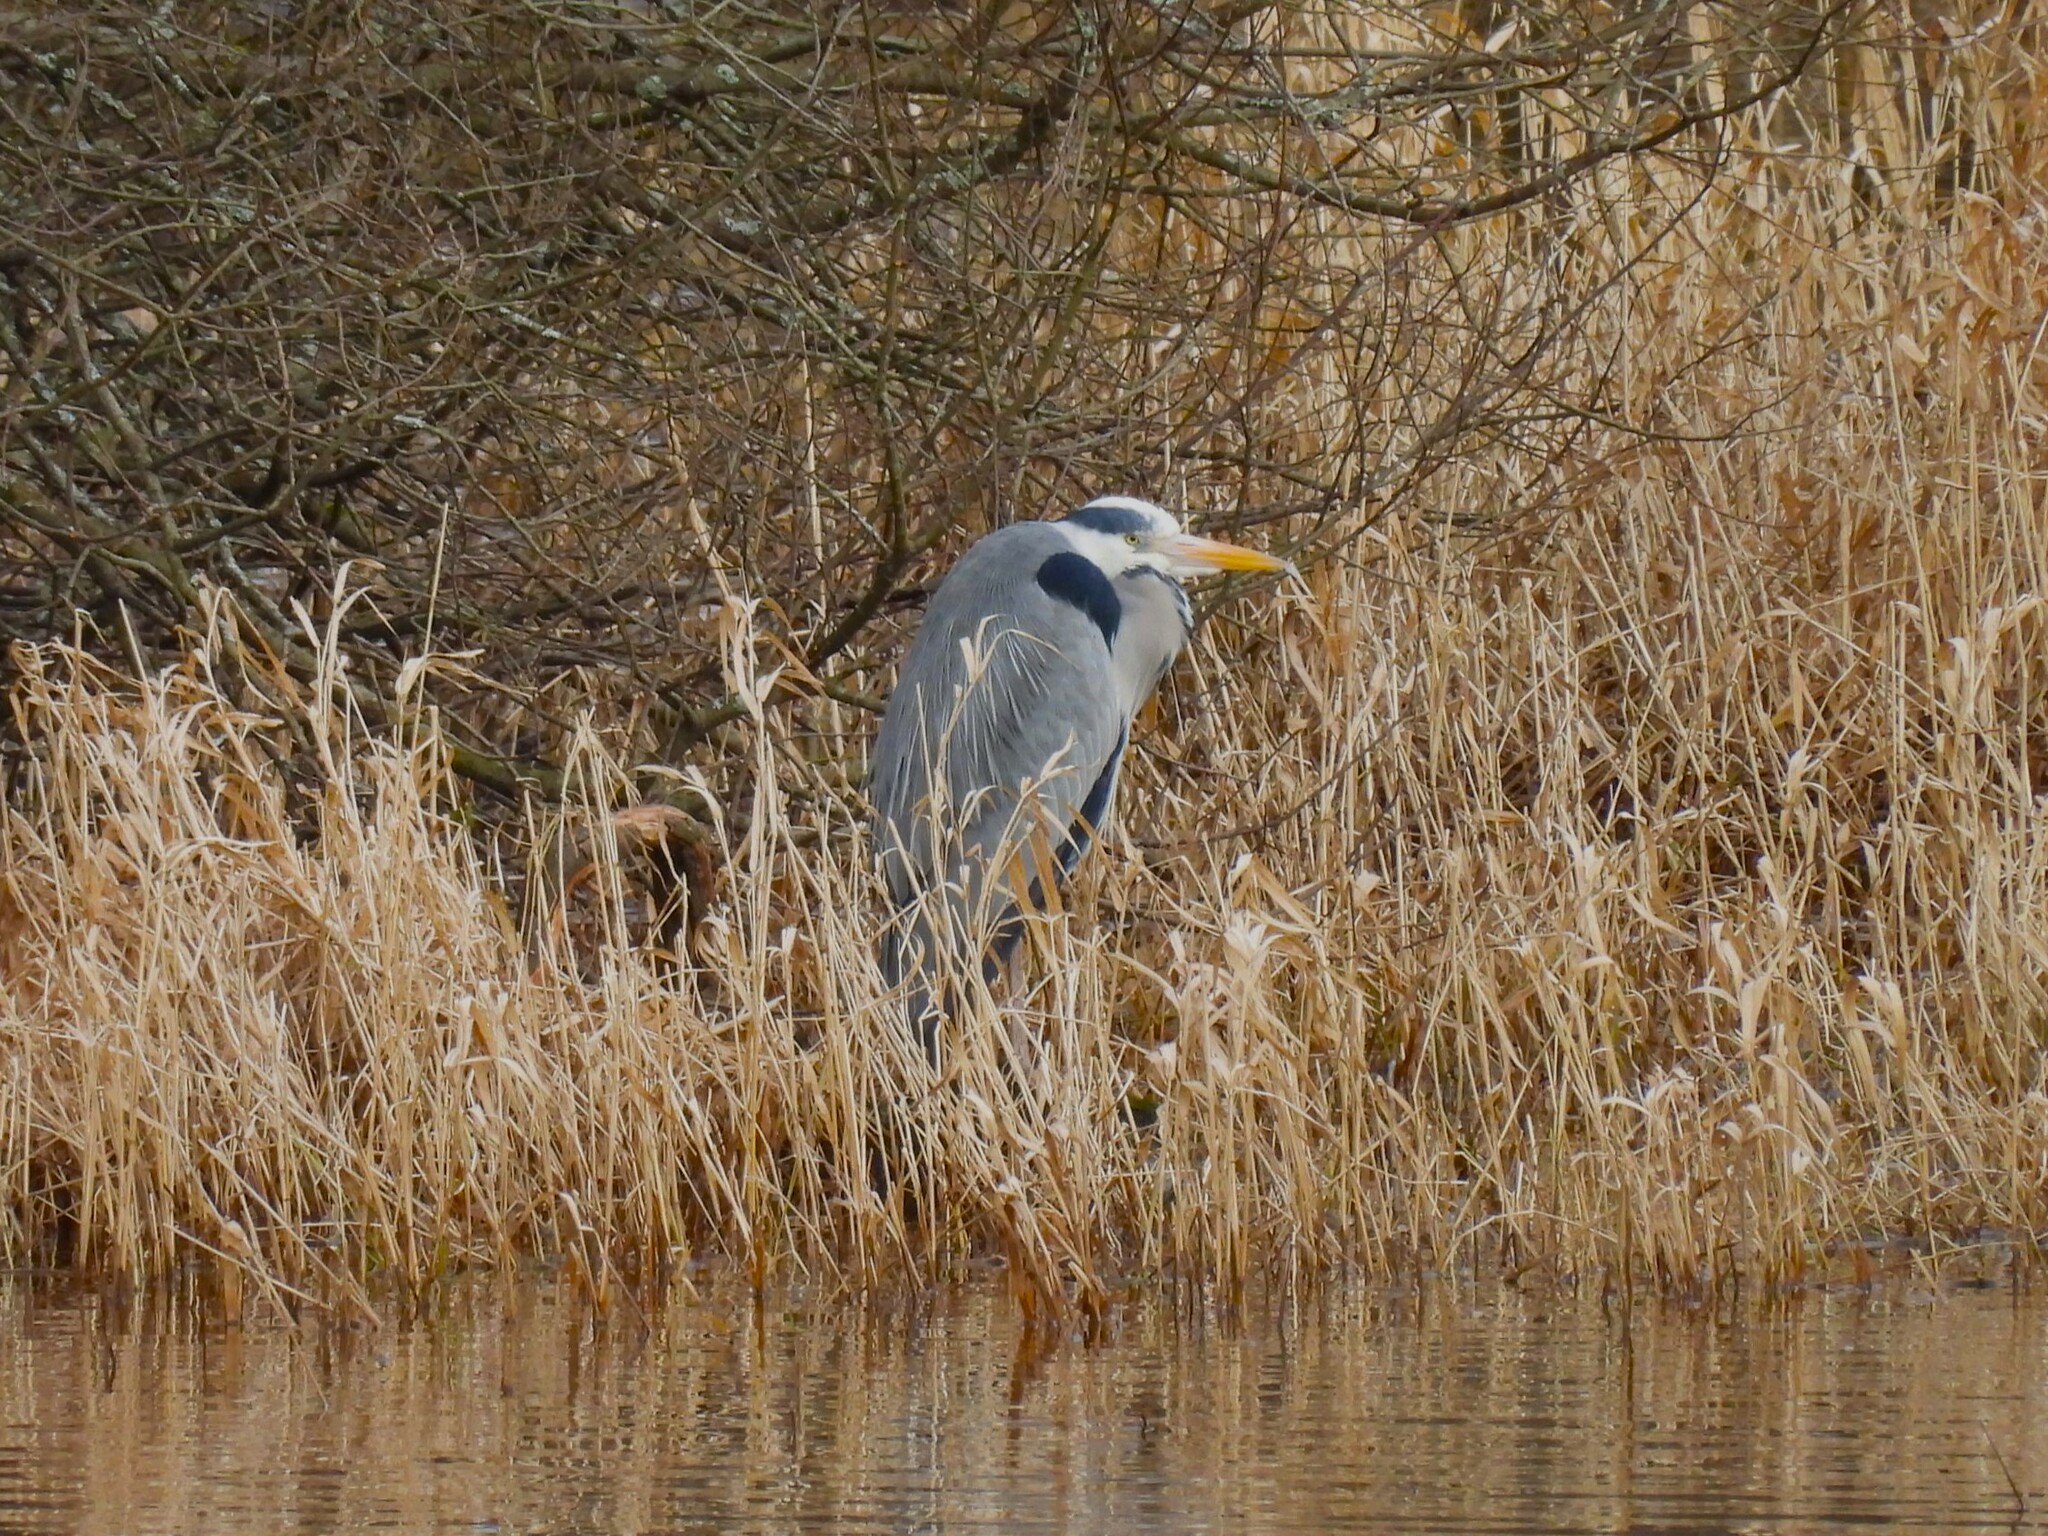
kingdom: Animalia
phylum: Chordata
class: Aves
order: Pelecaniformes
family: Ardeidae
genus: Ardea
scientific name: Ardea cinerea
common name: Grey heron
